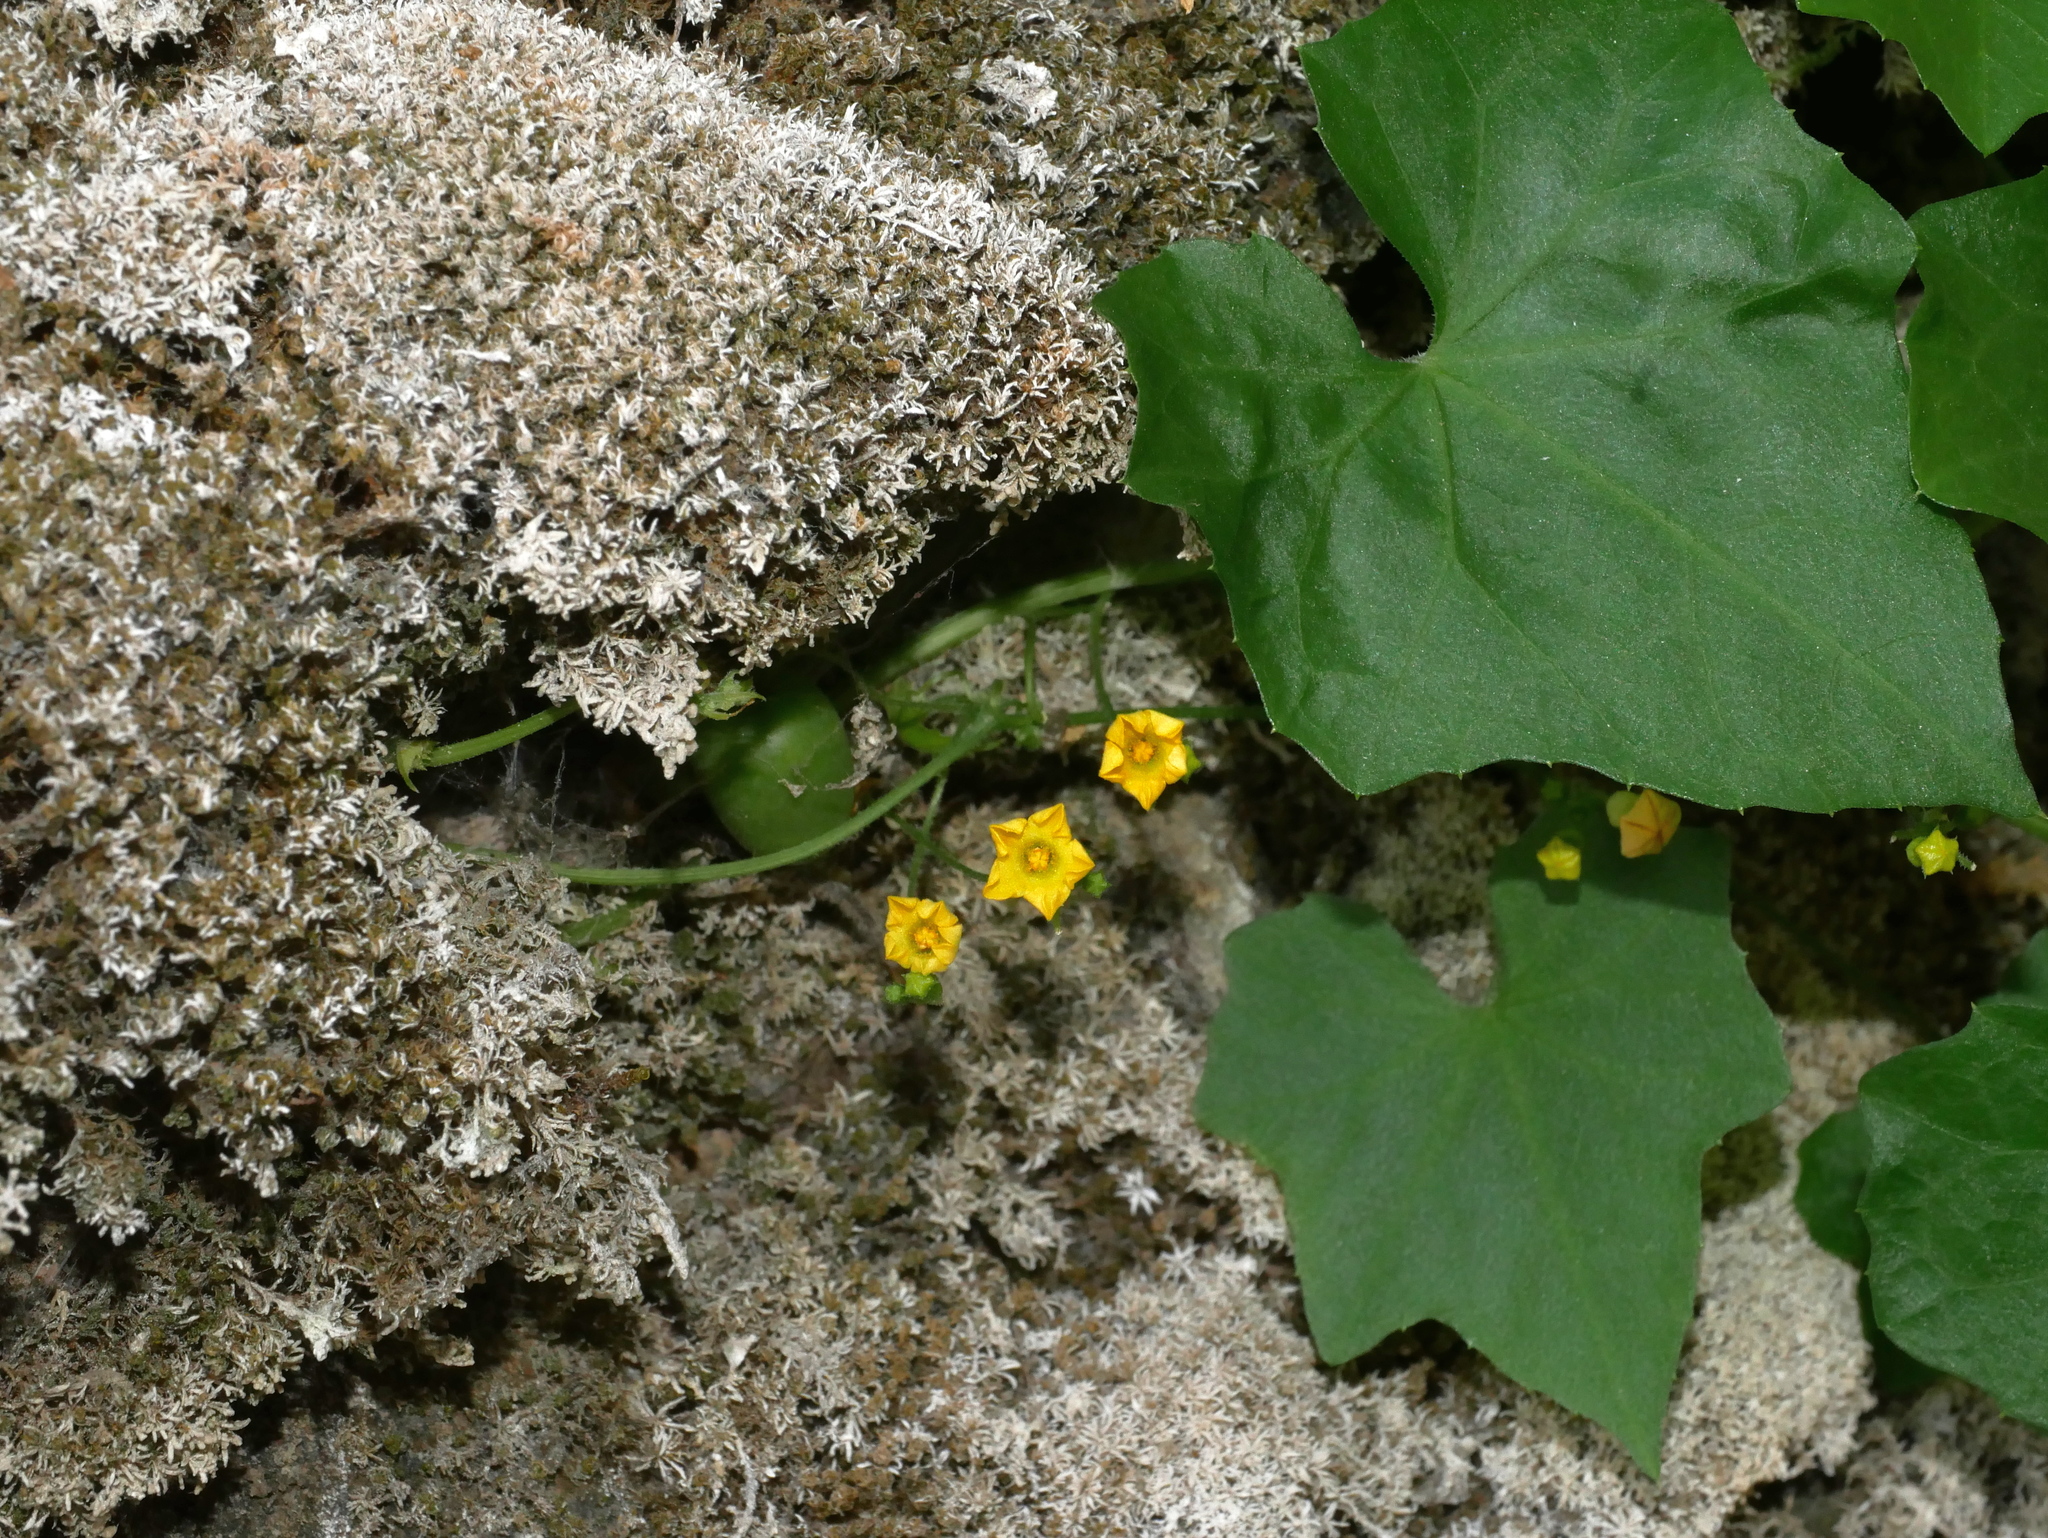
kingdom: Plantae
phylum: Tracheophyta
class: Magnoliopsida
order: Cucurbitales
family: Cucurbitaceae
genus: Melothria
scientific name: Melothria pendula
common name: Creeping-cucumber
